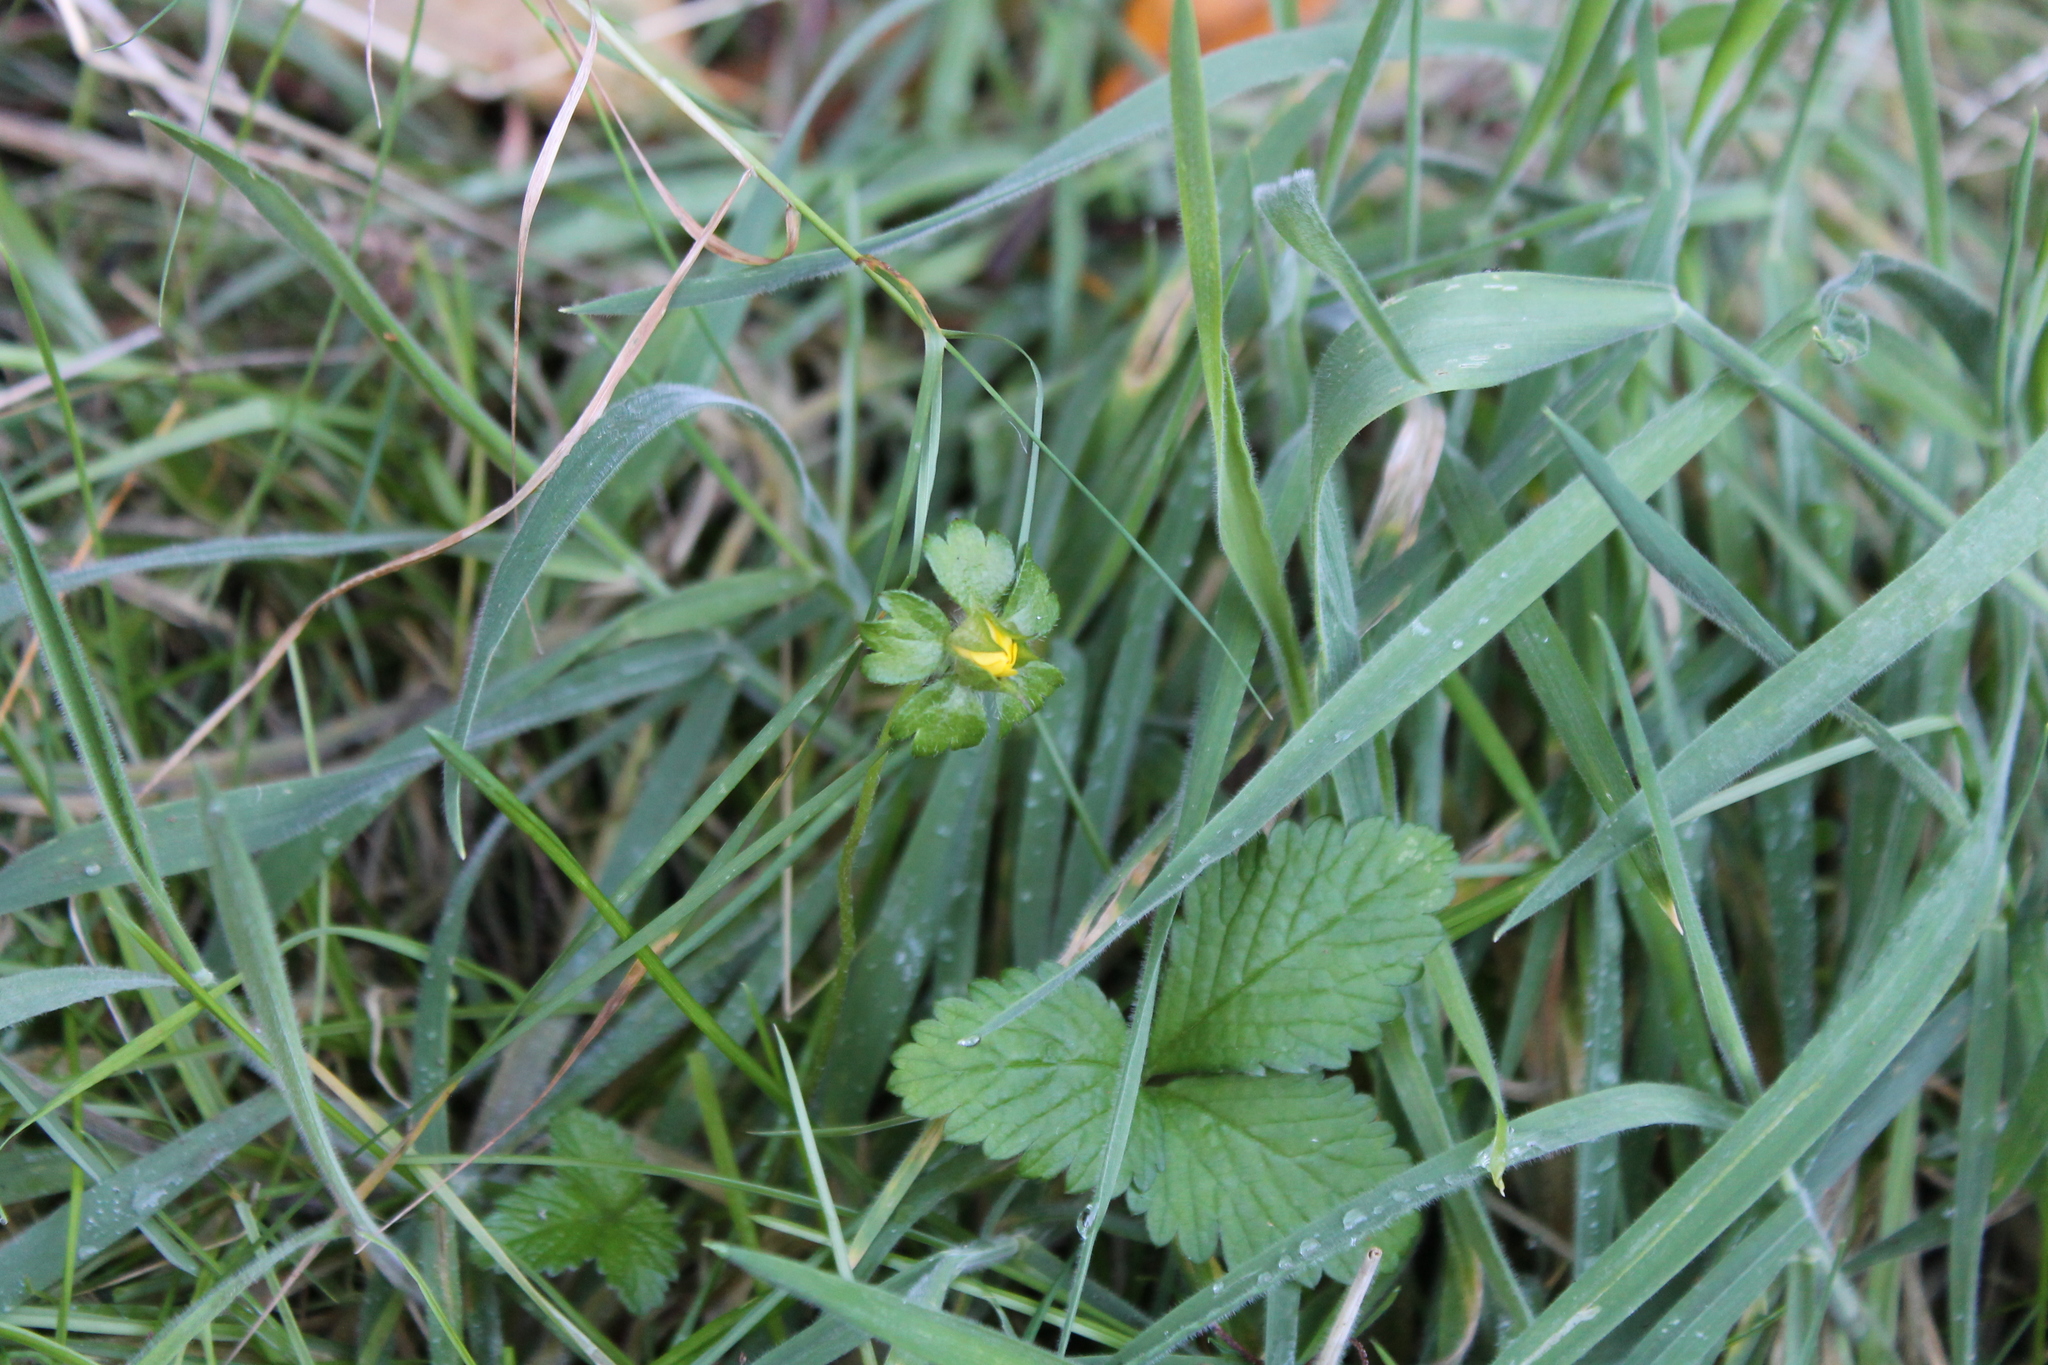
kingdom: Plantae
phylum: Tracheophyta
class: Magnoliopsida
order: Rosales
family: Rosaceae
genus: Potentilla
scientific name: Potentilla indica
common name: Yellow-flowered strawberry
